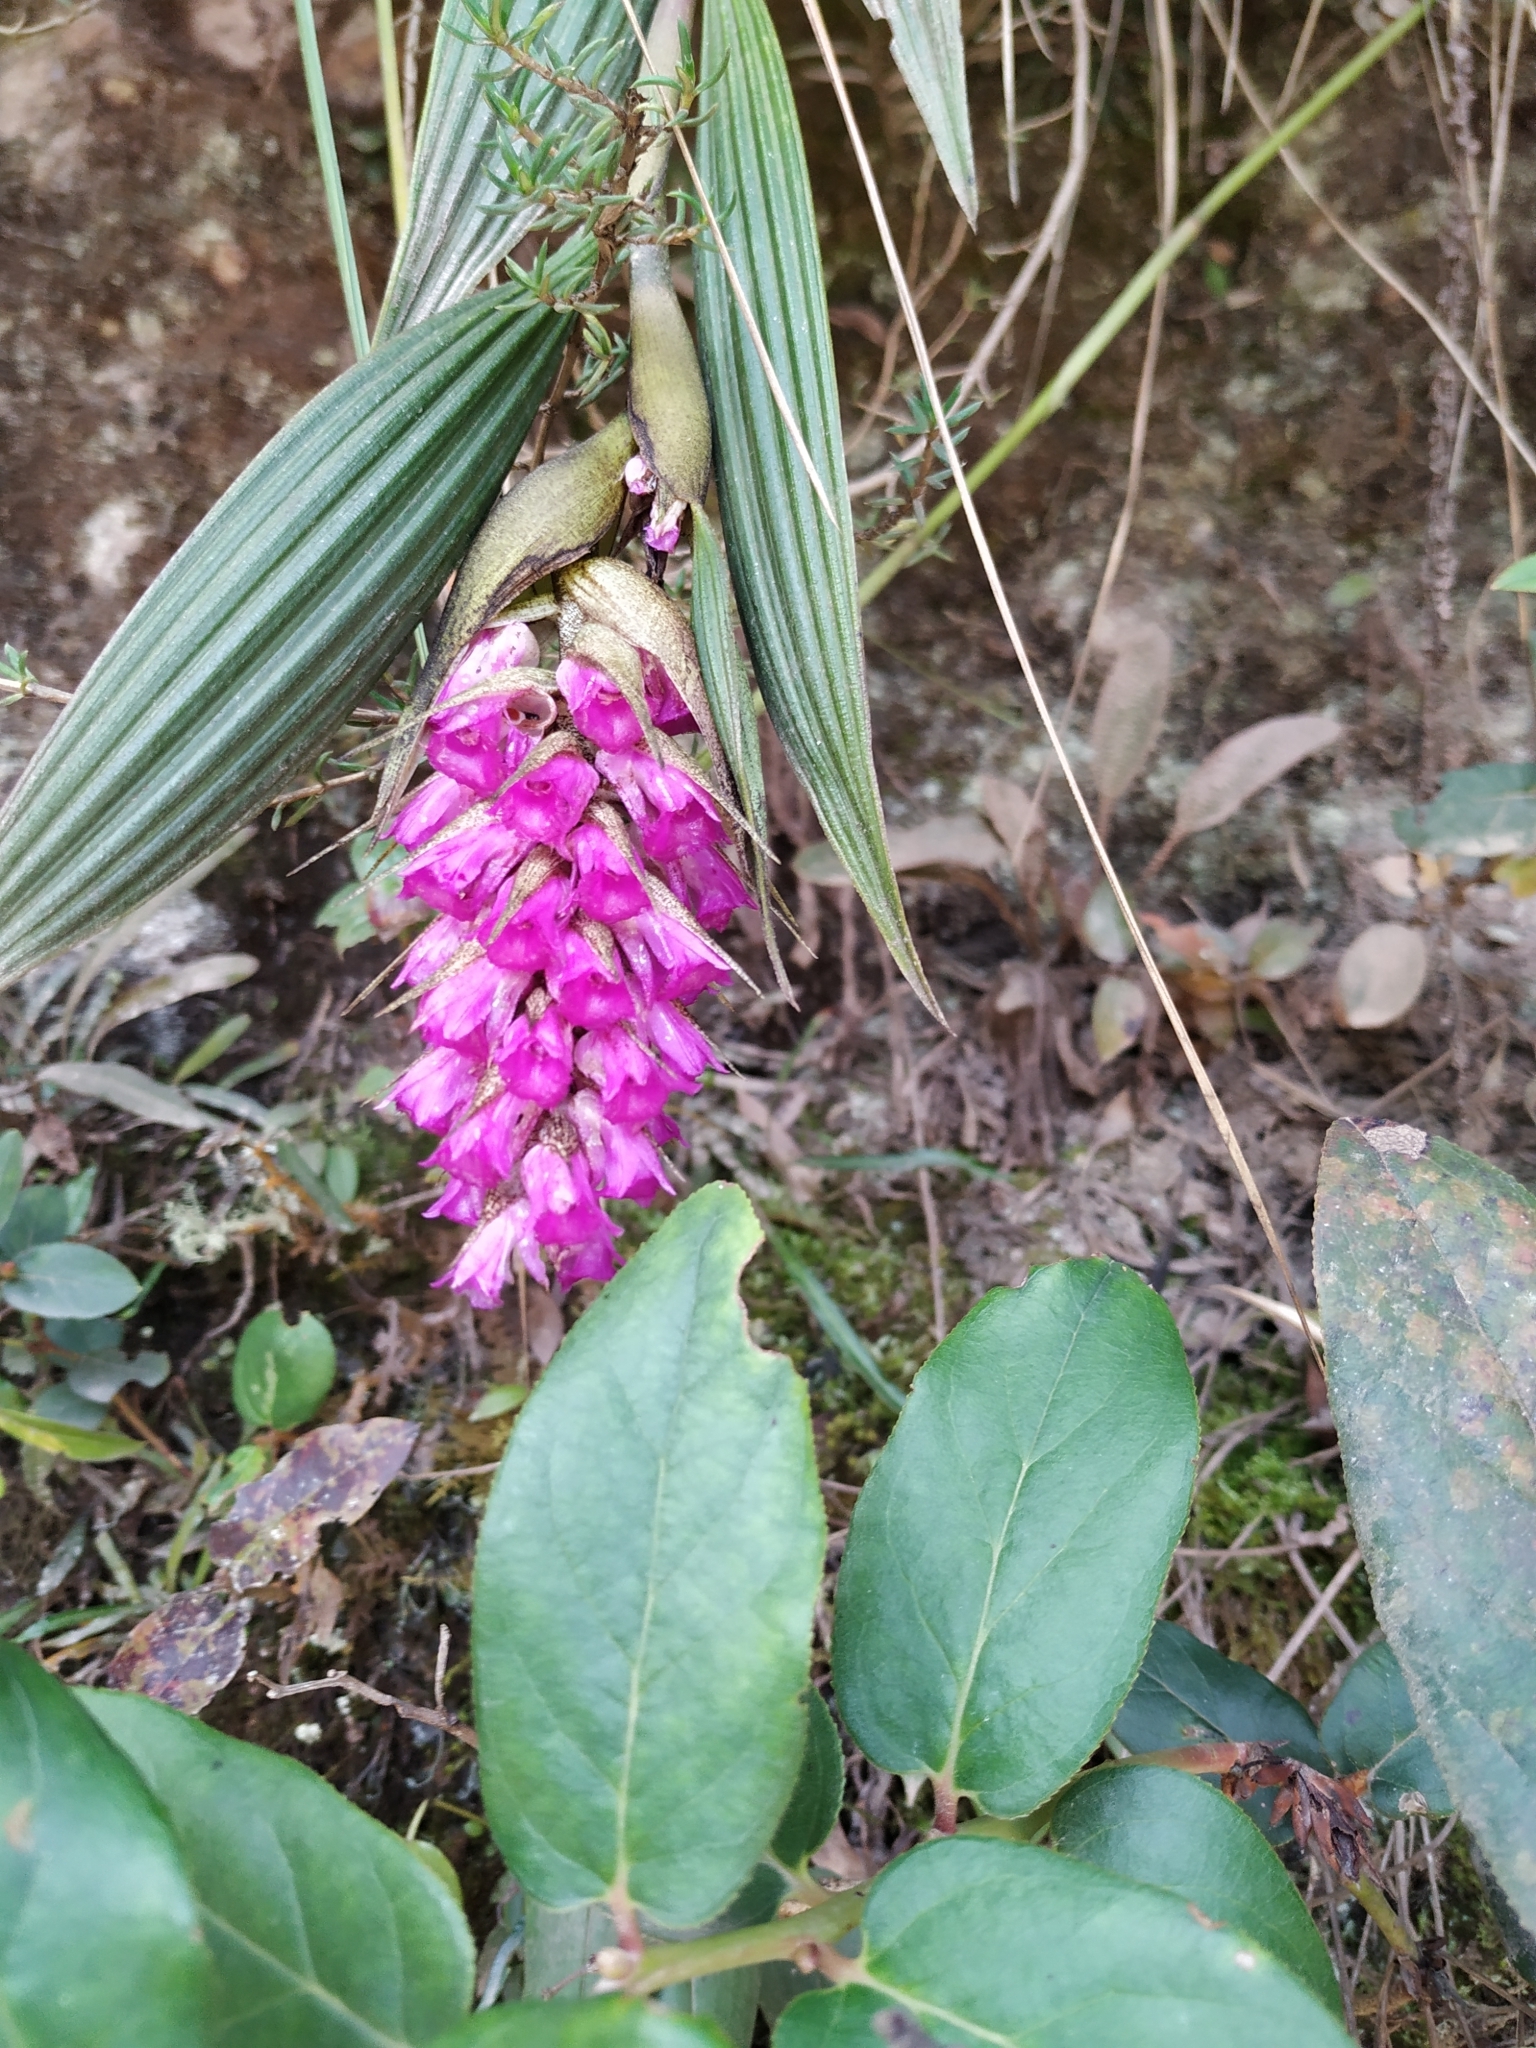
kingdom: Plantae
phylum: Tracheophyta
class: Liliopsida
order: Asparagales
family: Orchidaceae
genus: Elleanthus
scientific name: Elleanthus maculatus
